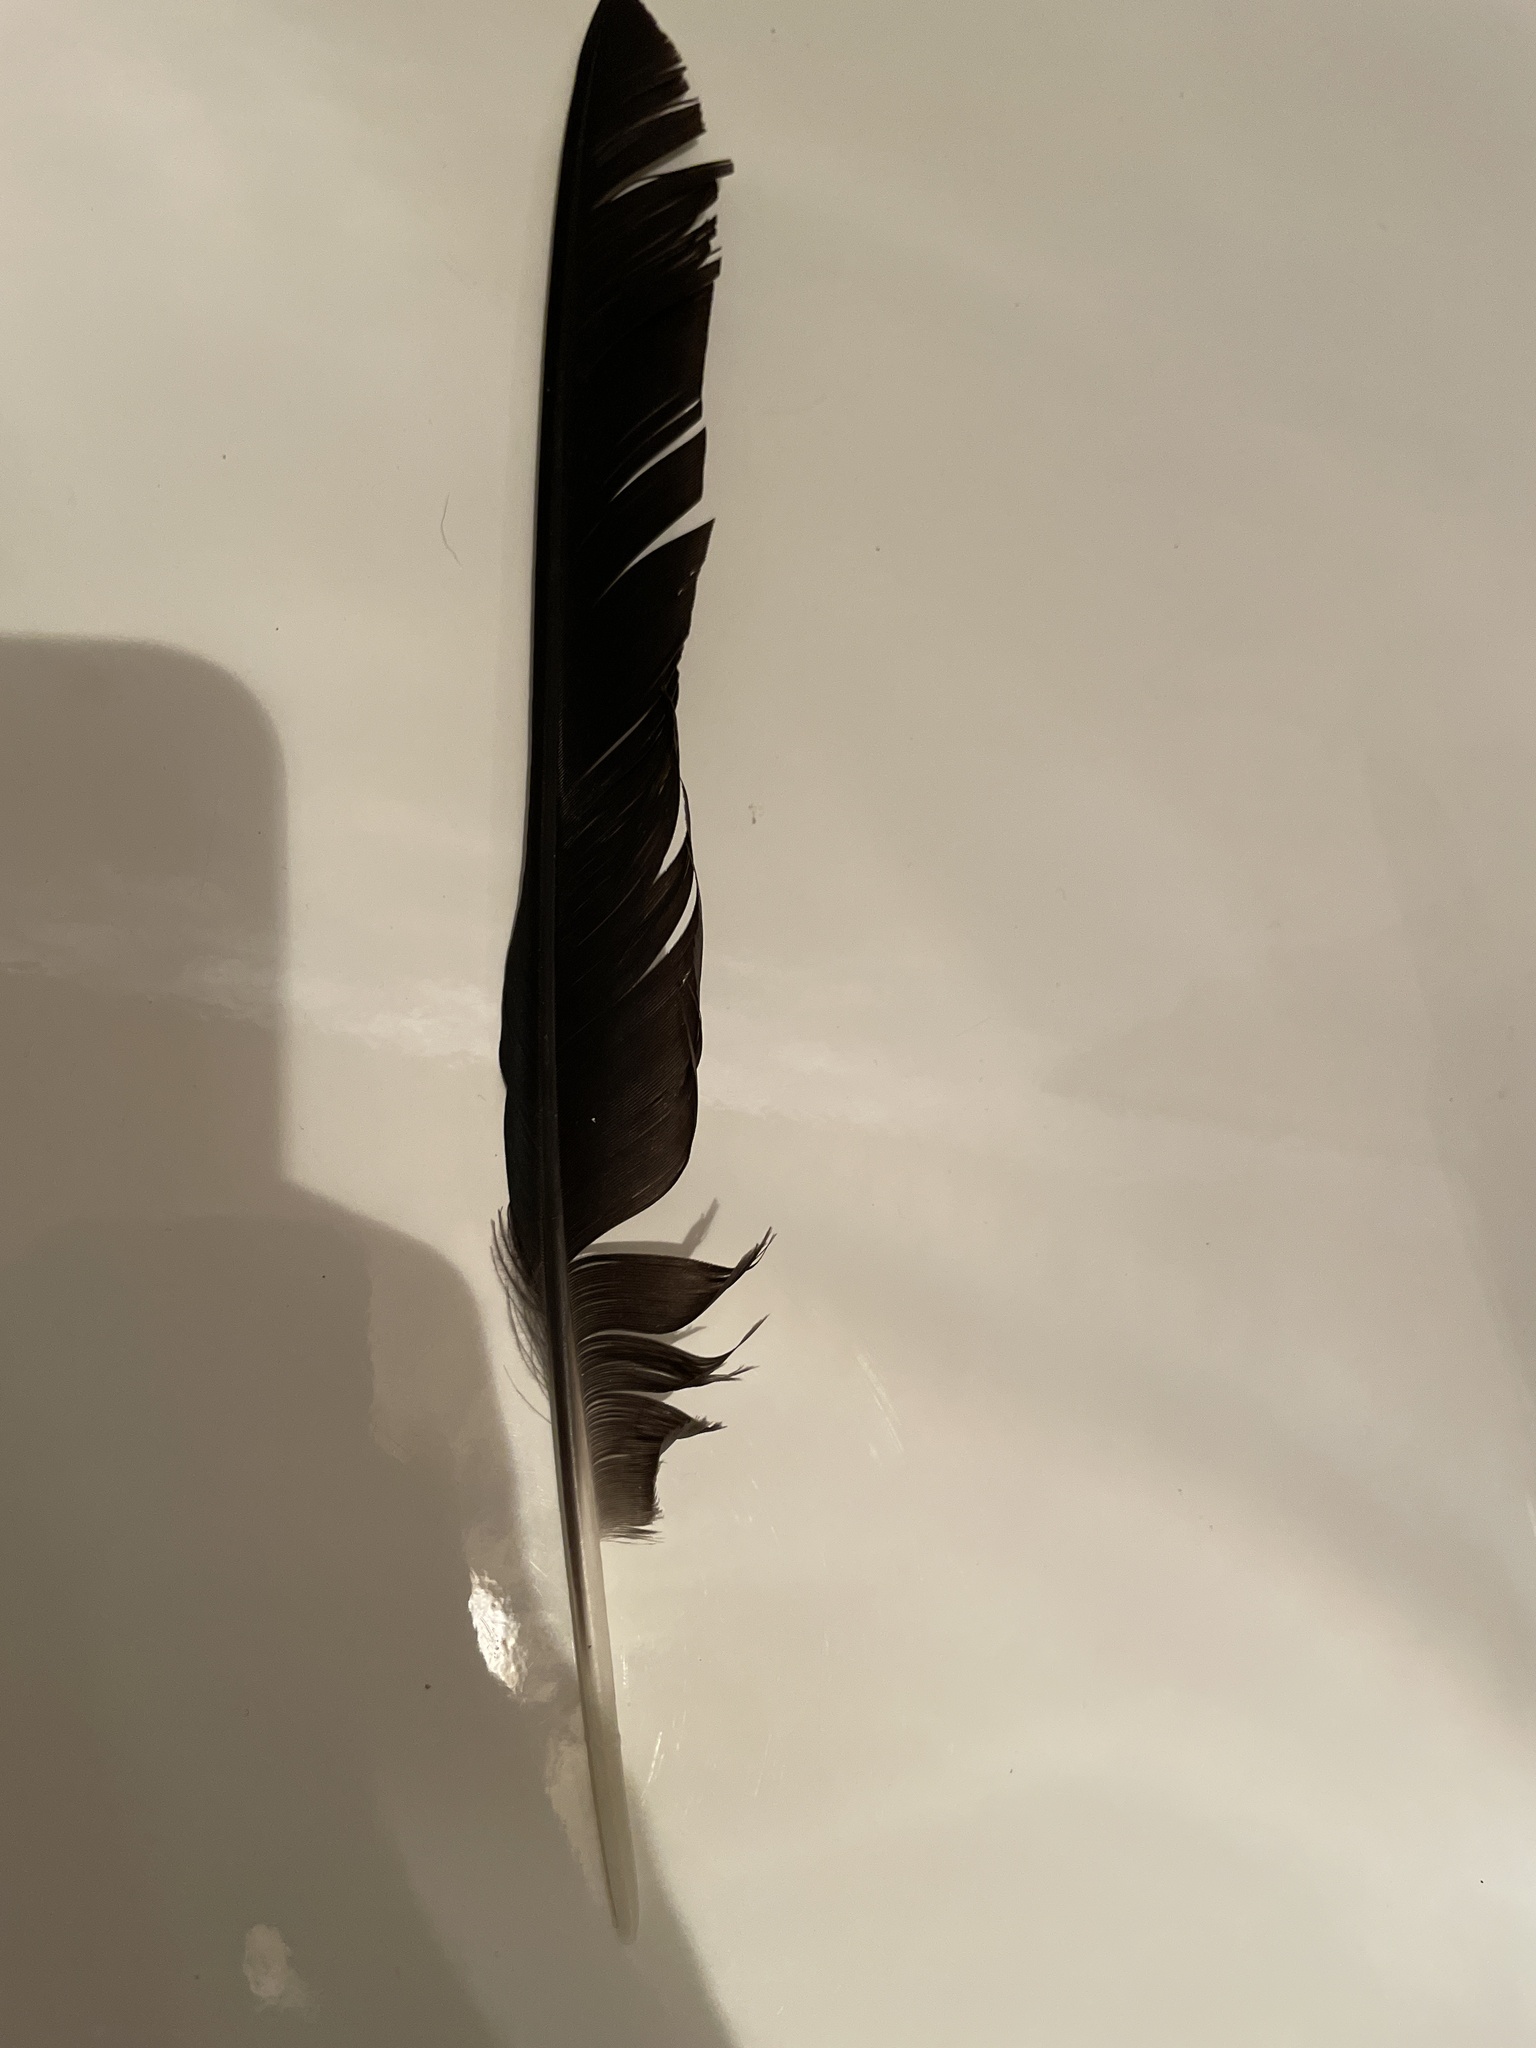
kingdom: Animalia
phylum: Chordata
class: Aves
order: Passeriformes
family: Corvidae
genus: Corvus
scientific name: Corvus corone
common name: Carrion crow
